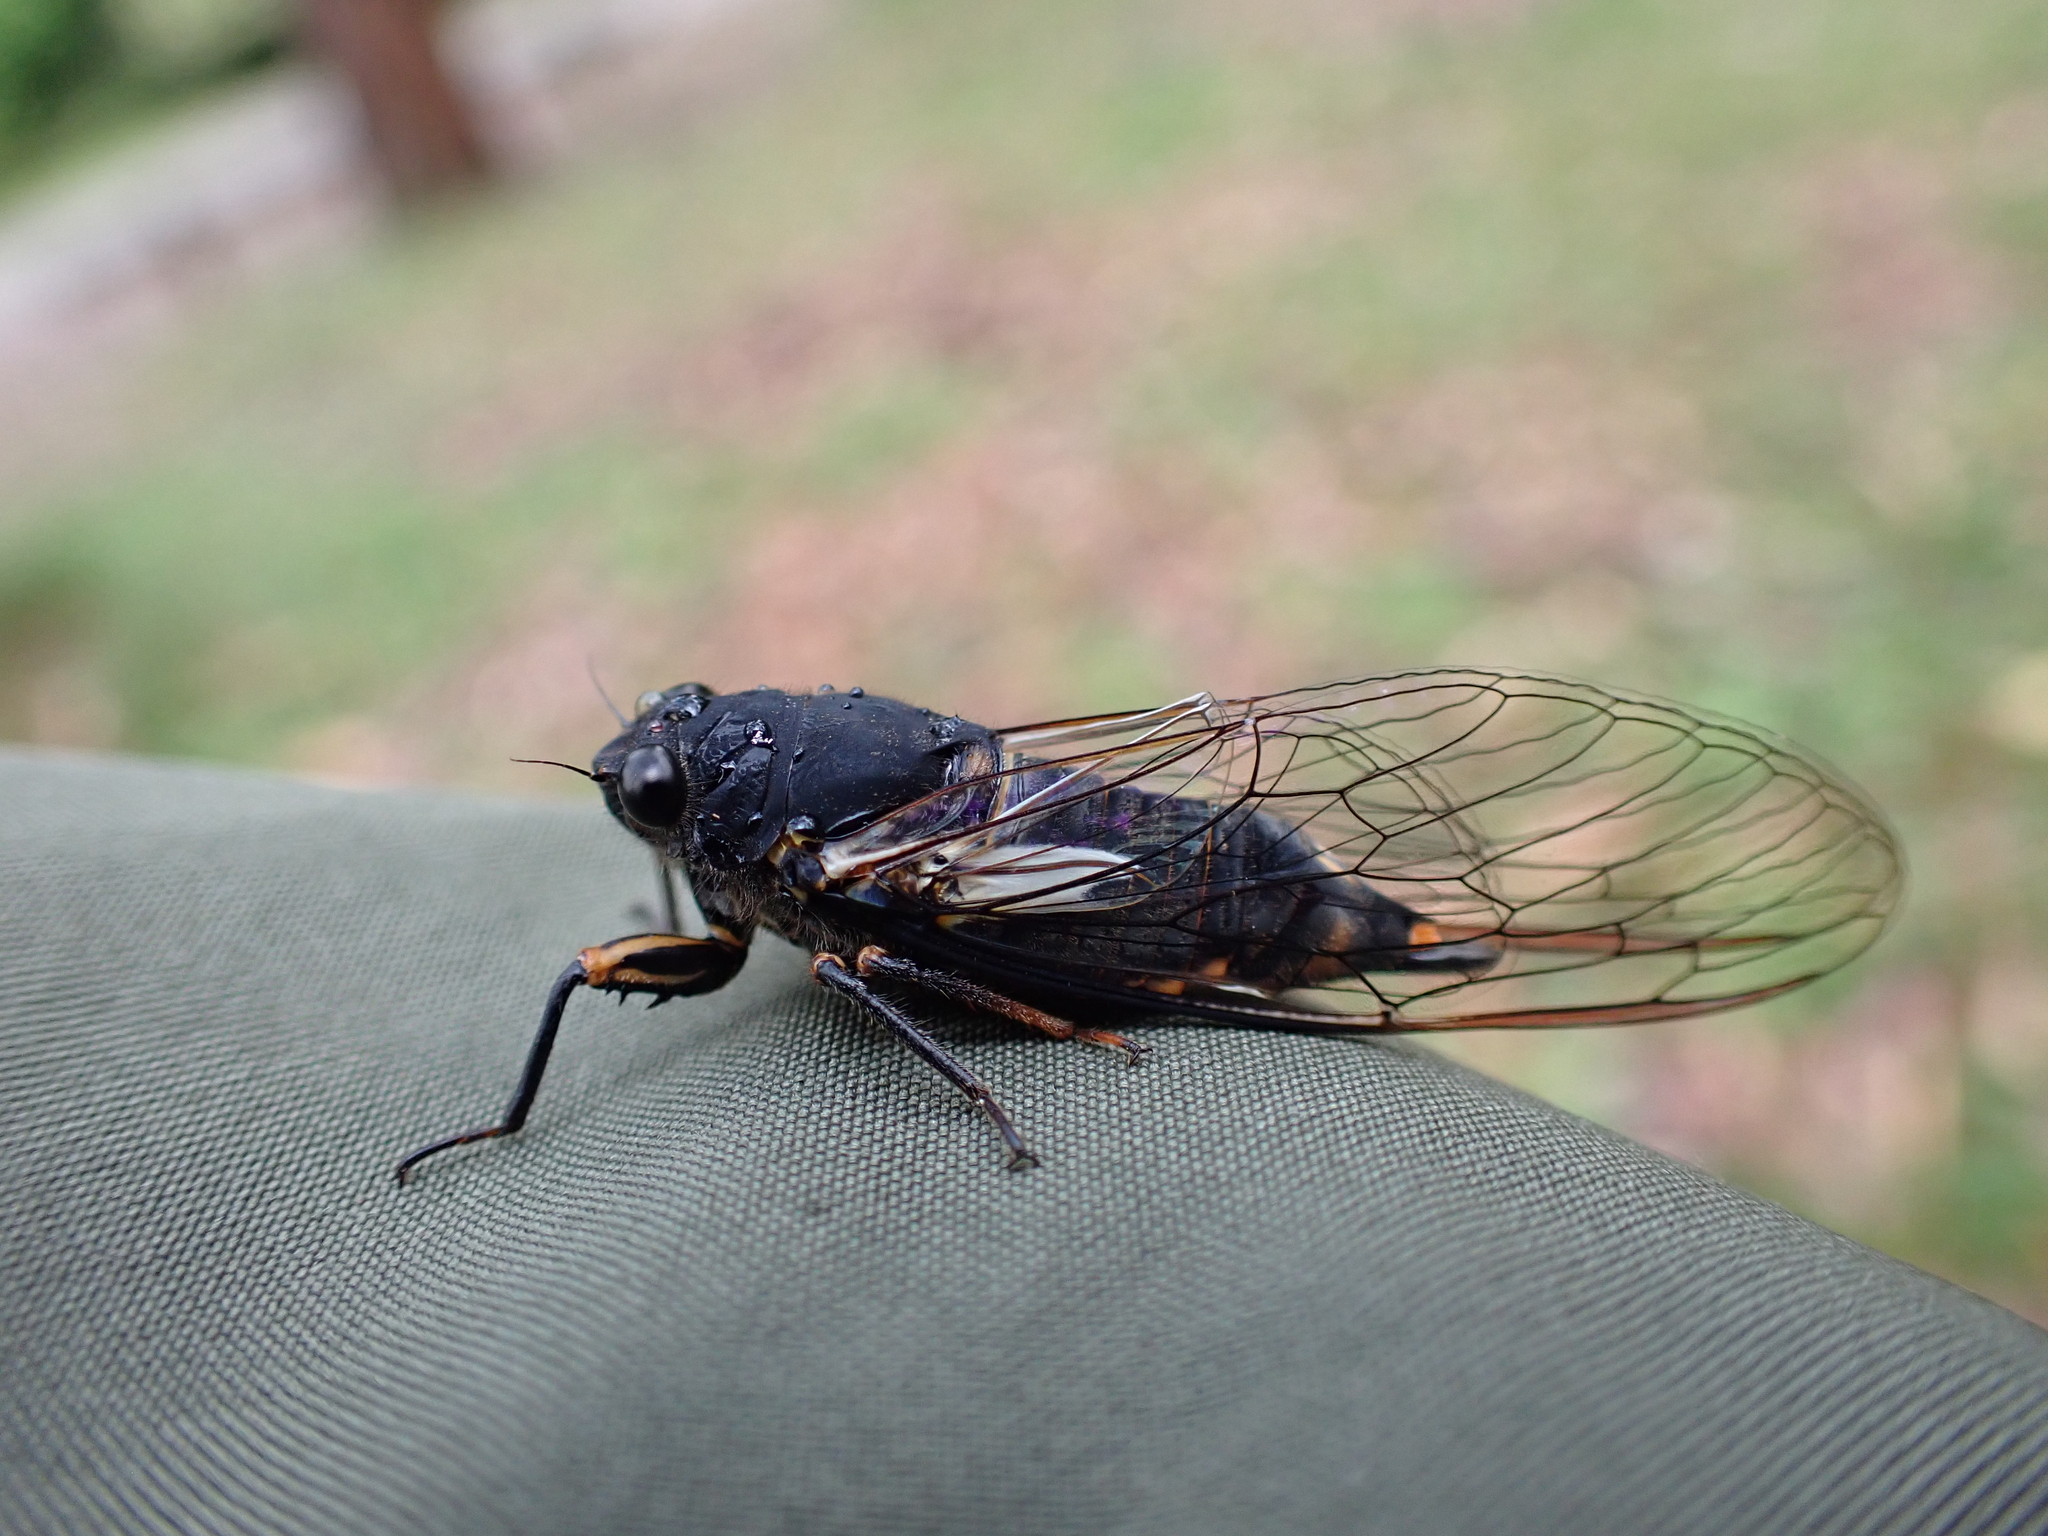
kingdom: Animalia
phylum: Arthropoda
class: Insecta
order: Hemiptera
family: Cicadidae
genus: Yoyetta
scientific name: Yoyetta kershawi
